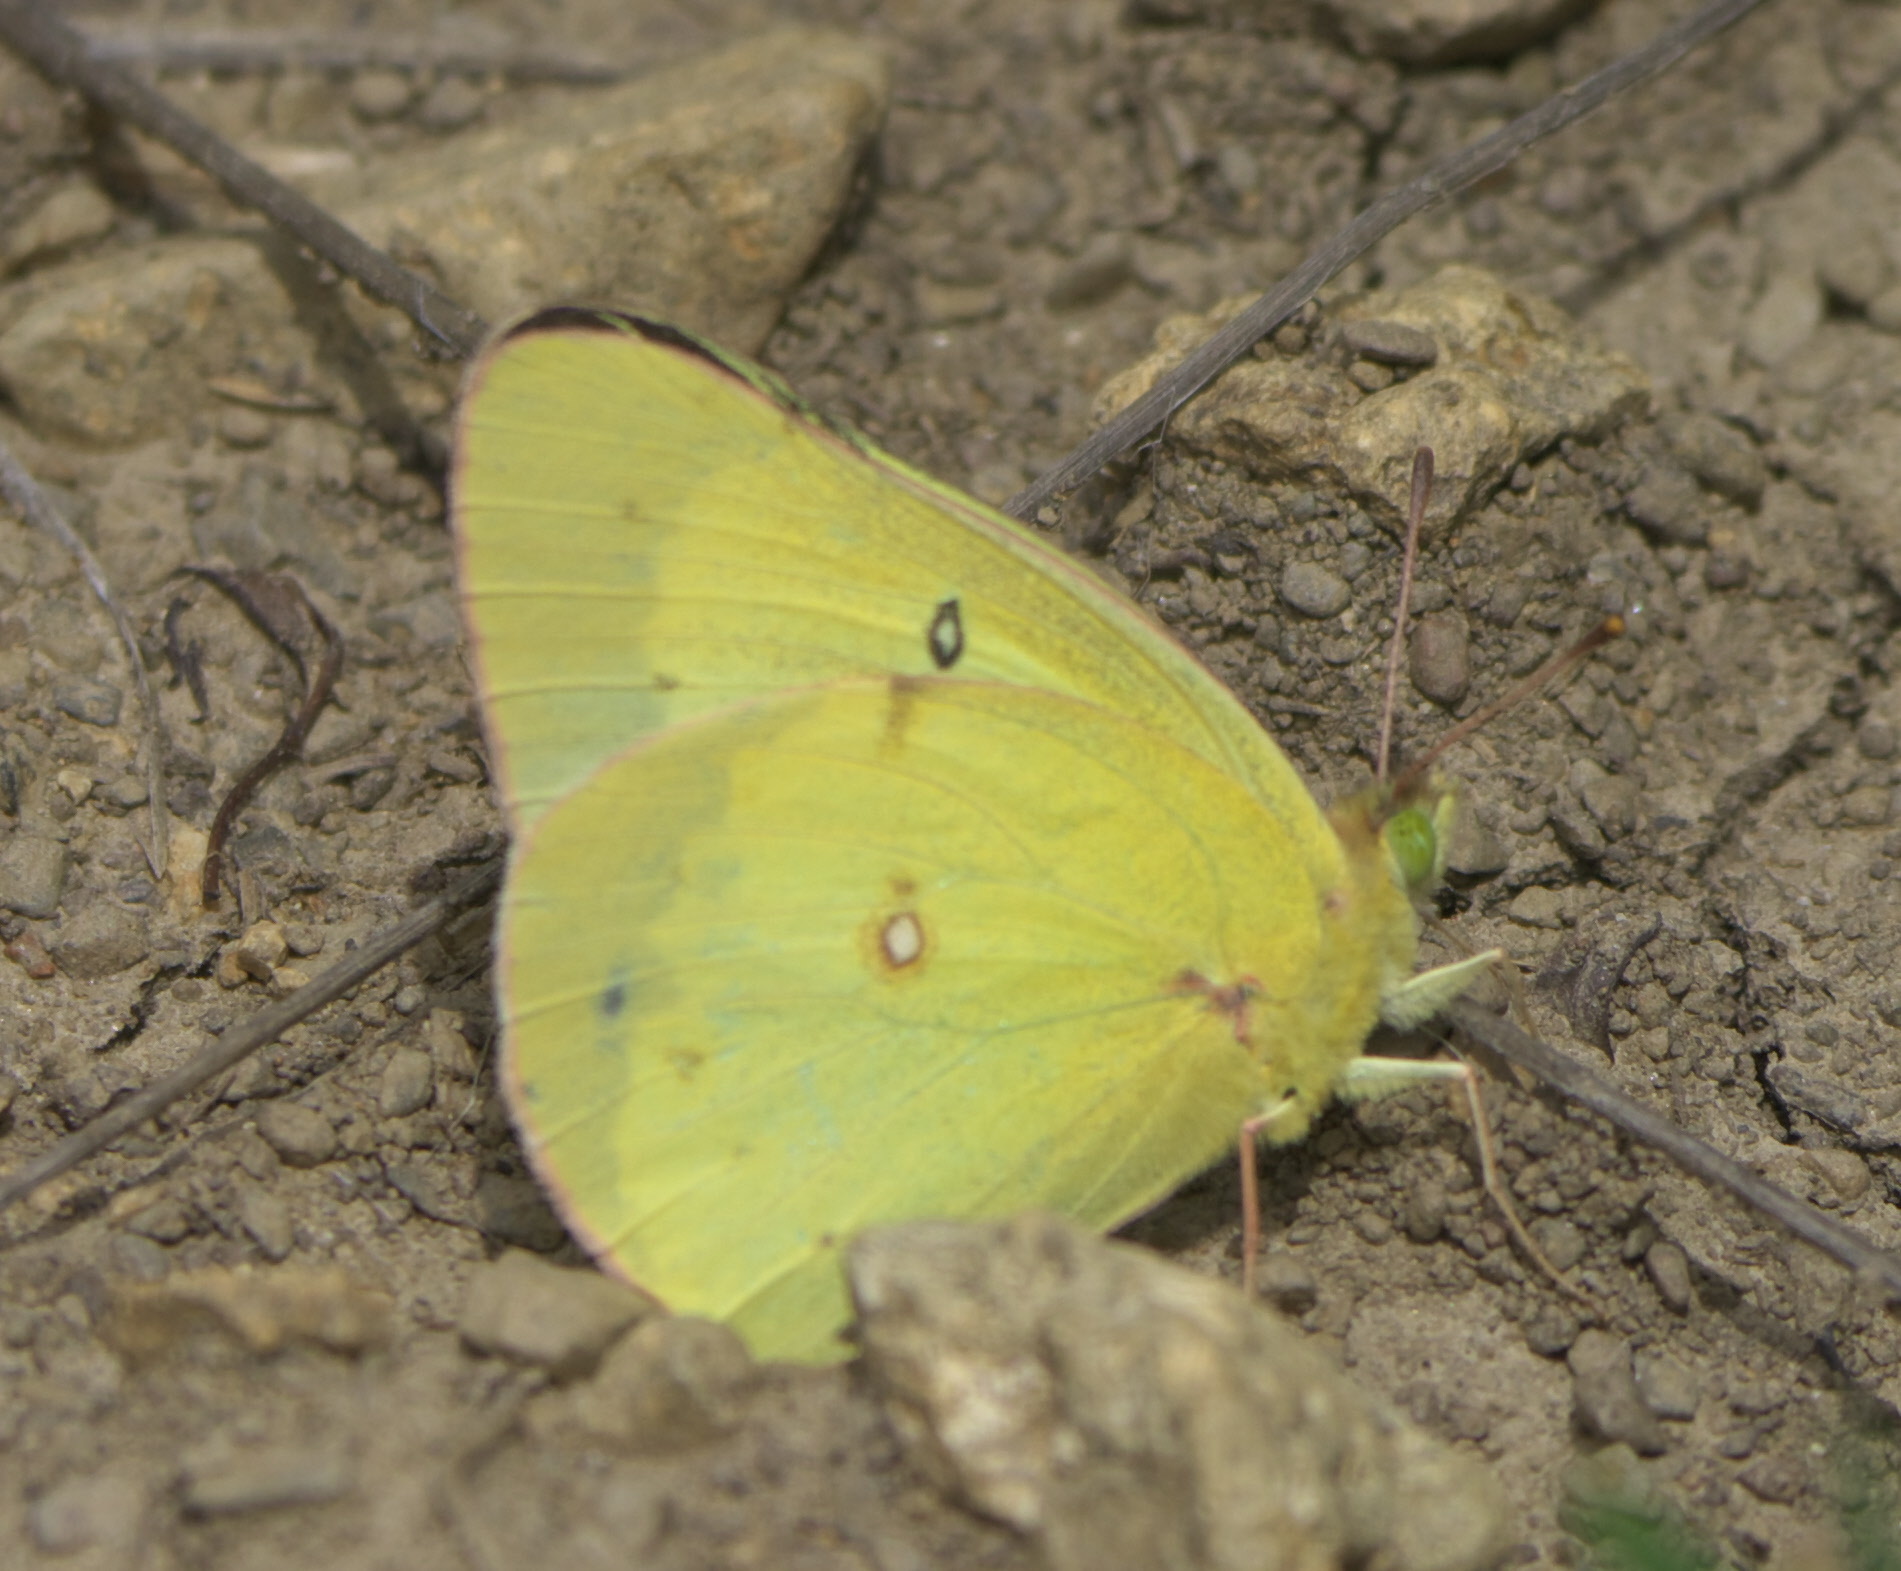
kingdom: Animalia
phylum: Arthropoda
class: Insecta
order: Lepidoptera
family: Pieridae
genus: Colias
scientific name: Colias philodice
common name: Clouded sulphur
